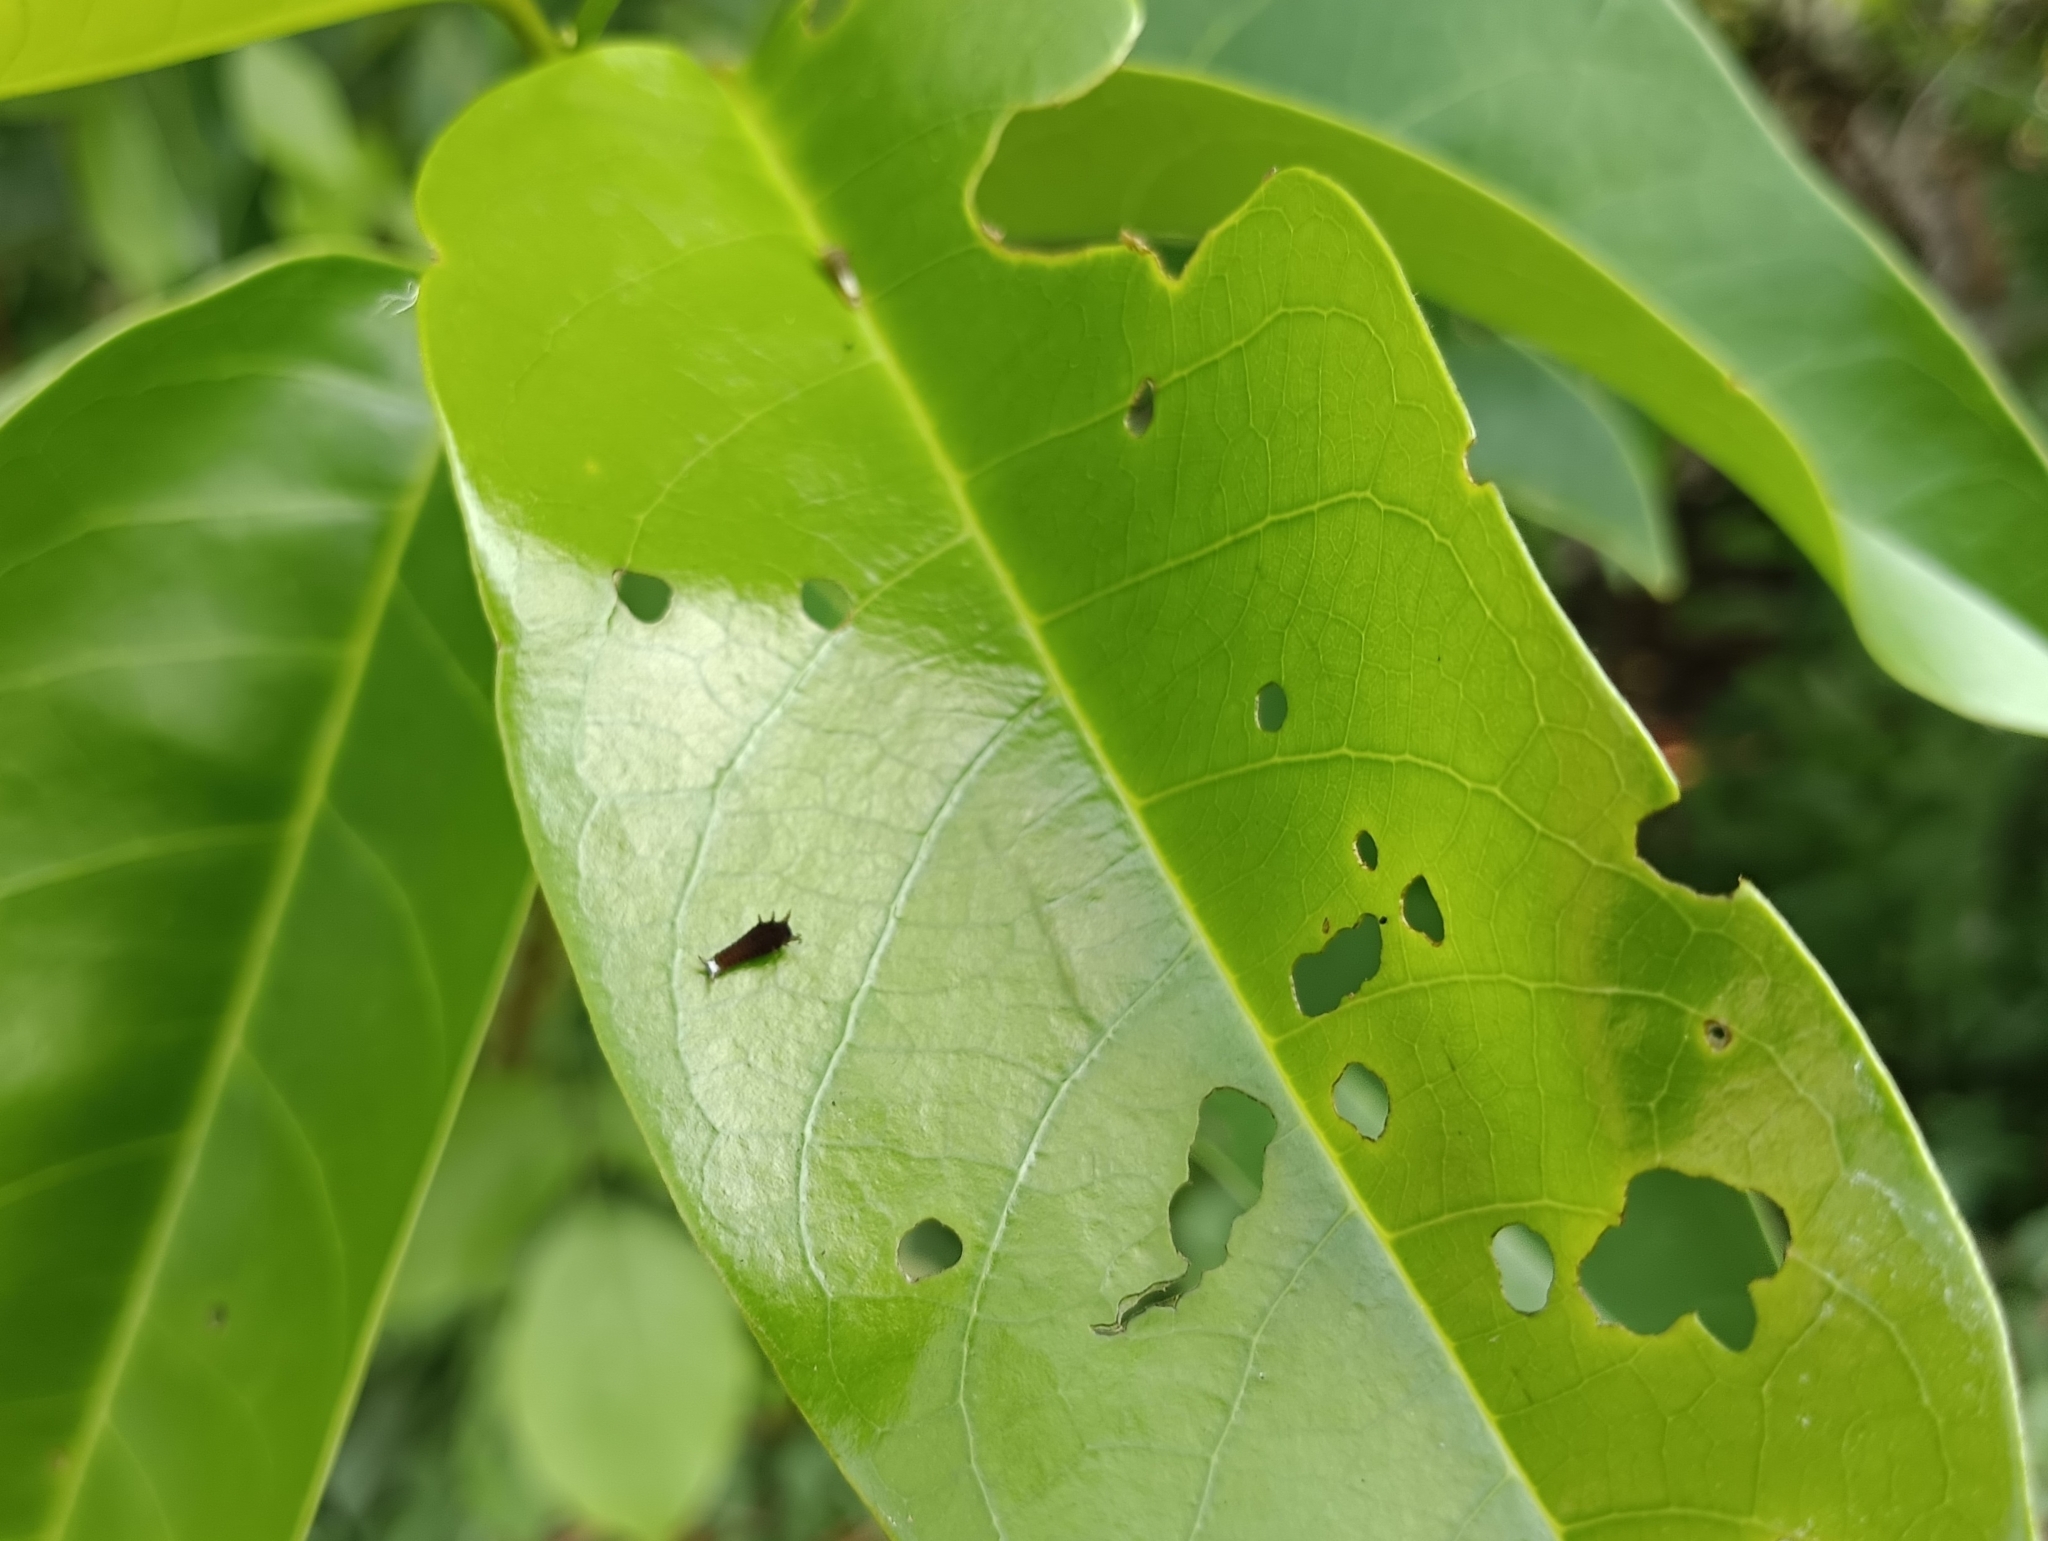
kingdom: Animalia
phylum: Arthropoda
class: Insecta
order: Lepidoptera
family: Papilionidae
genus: Graphium
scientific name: Graphium doson
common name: Common jay
